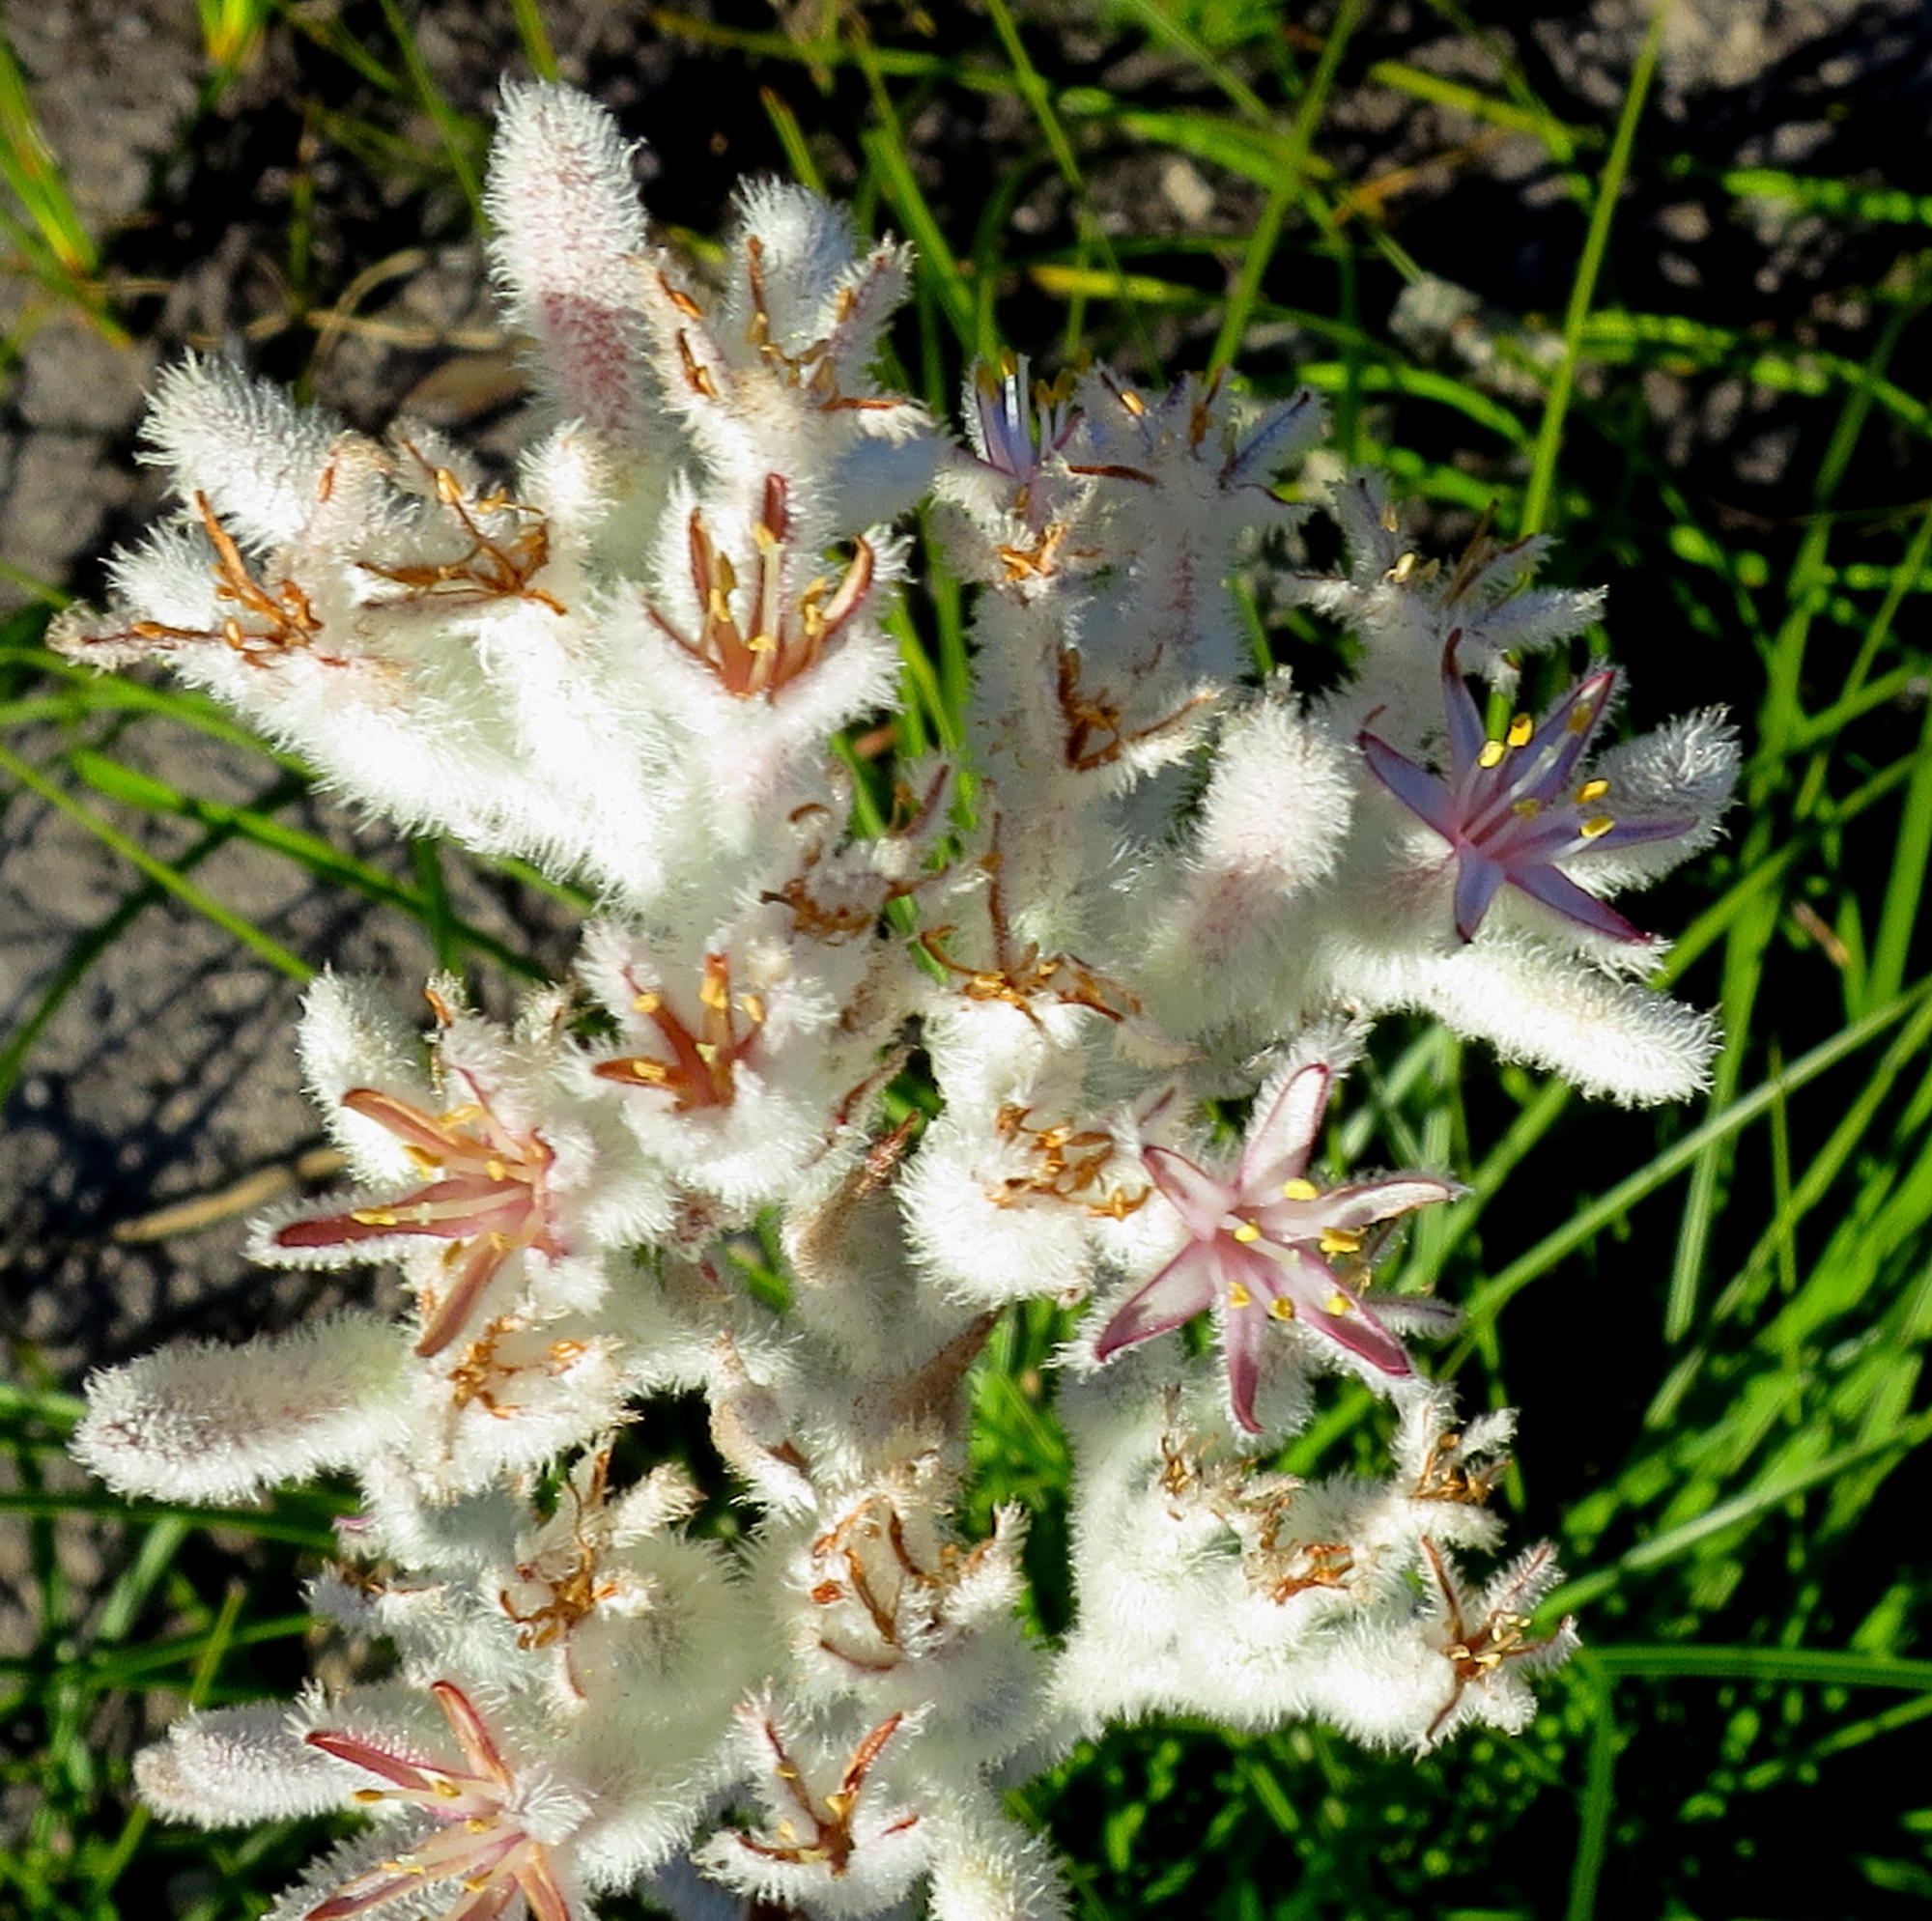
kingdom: Plantae
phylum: Tracheophyta
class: Liliopsida
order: Asparagales
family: Lanariaceae
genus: Lanaria
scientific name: Lanaria lanata
